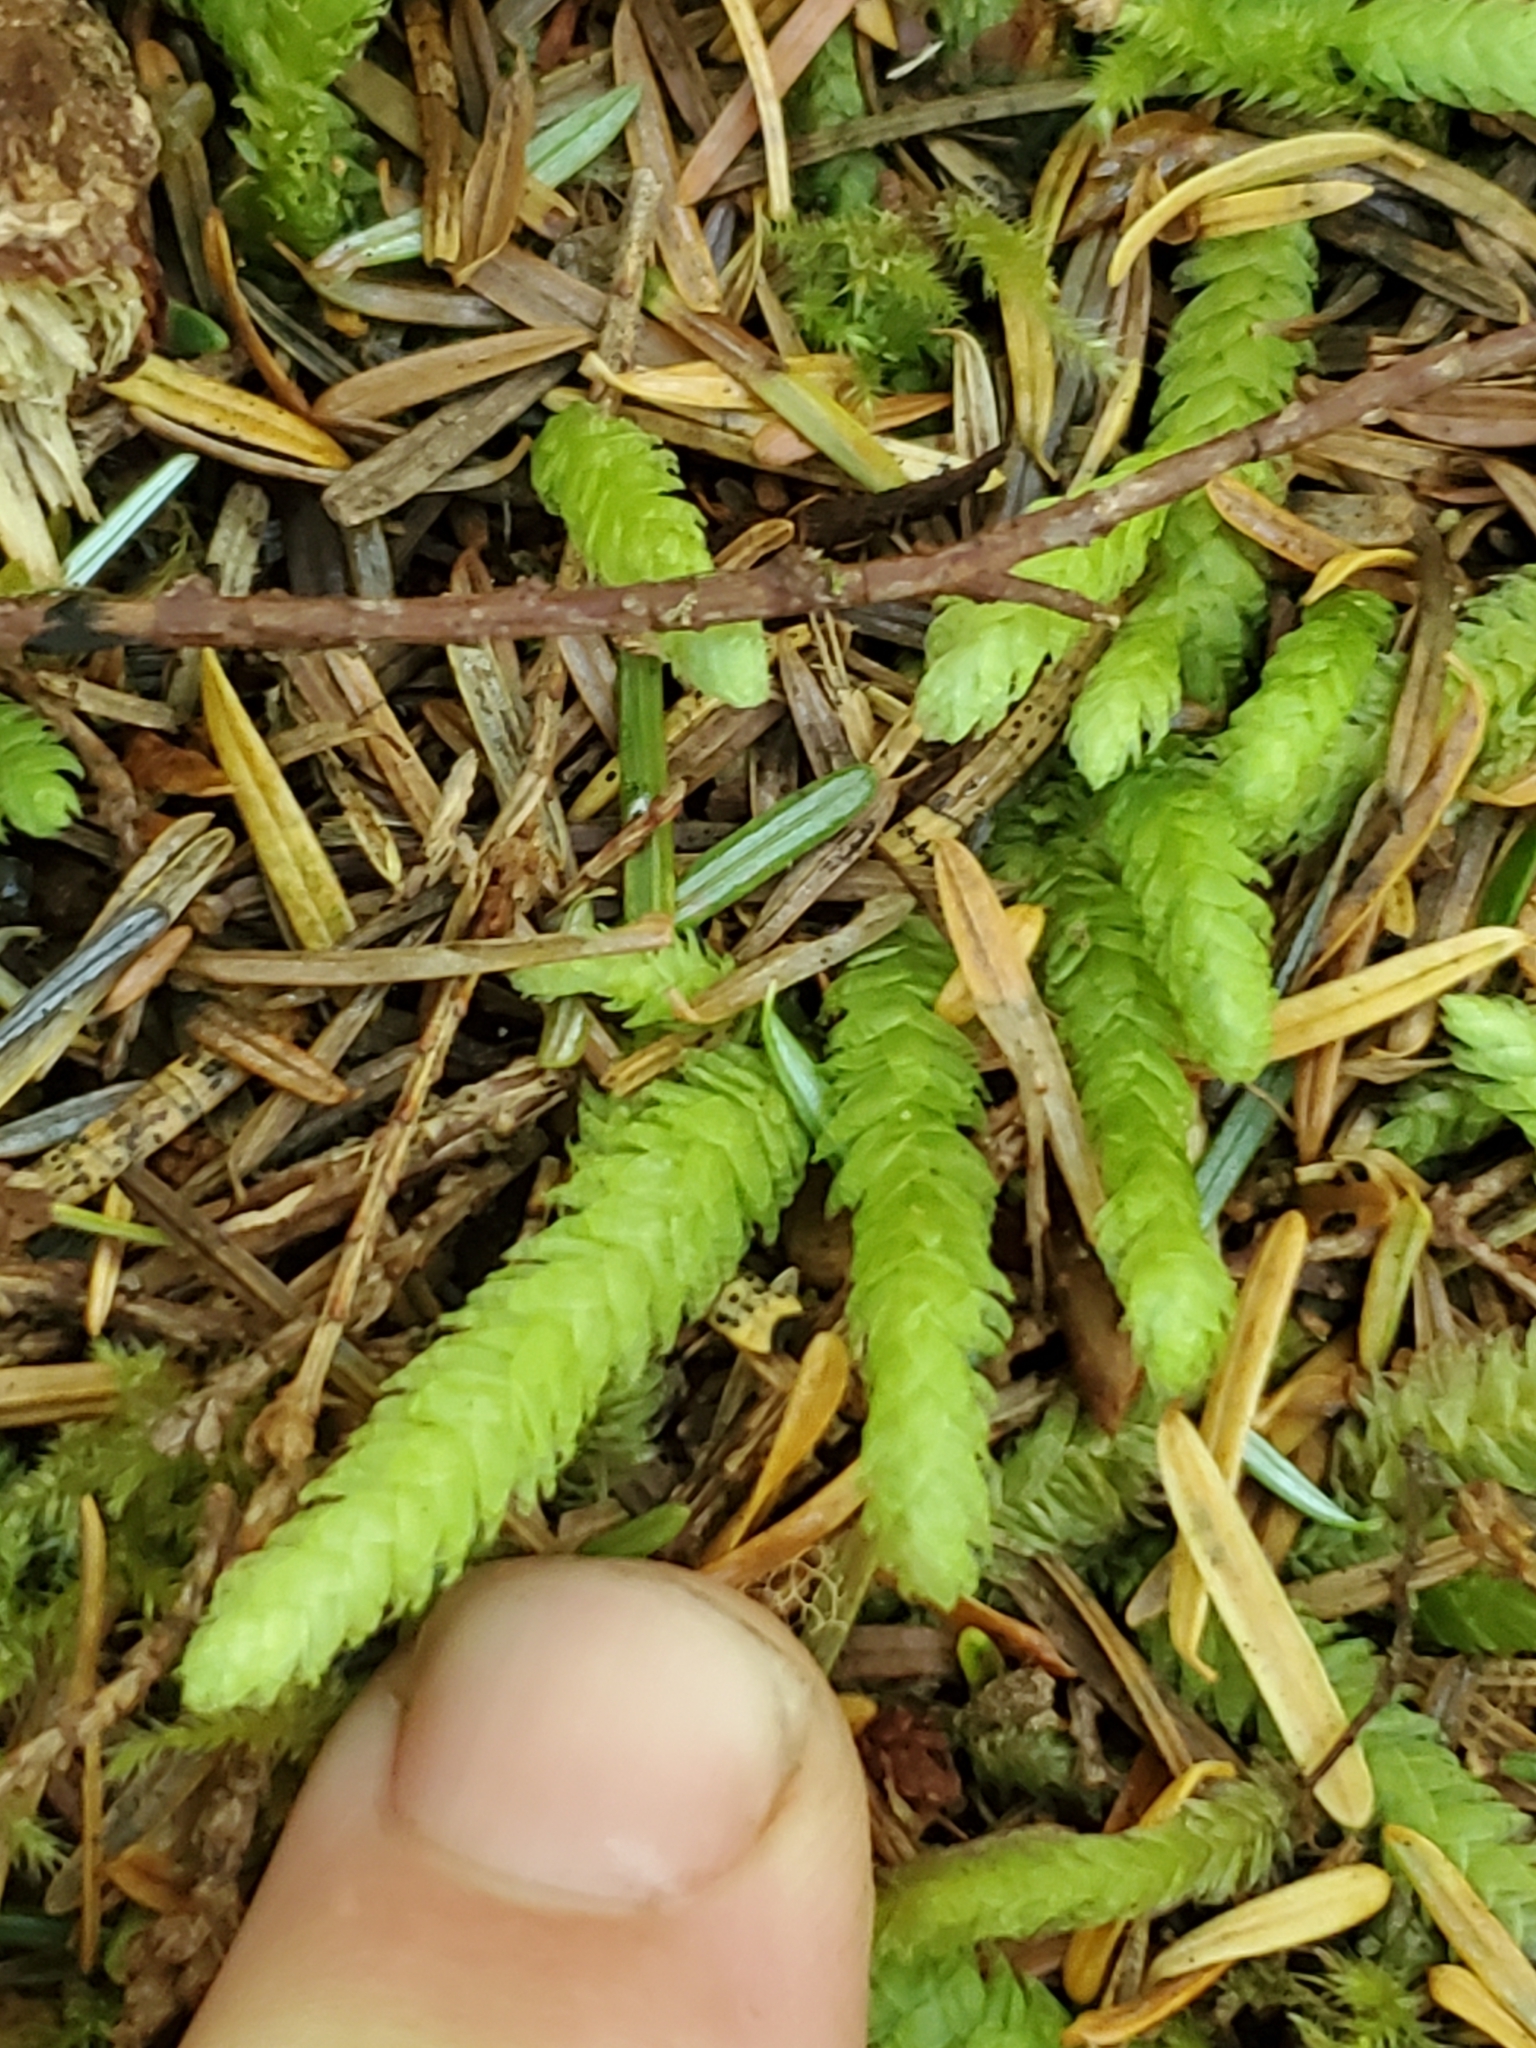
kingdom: Plantae
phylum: Bryophyta
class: Bryopsida
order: Hypnales
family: Plagiotheciaceae
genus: Plagiothecium
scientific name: Plagiothecium undulatum
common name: Waved silk-moss
